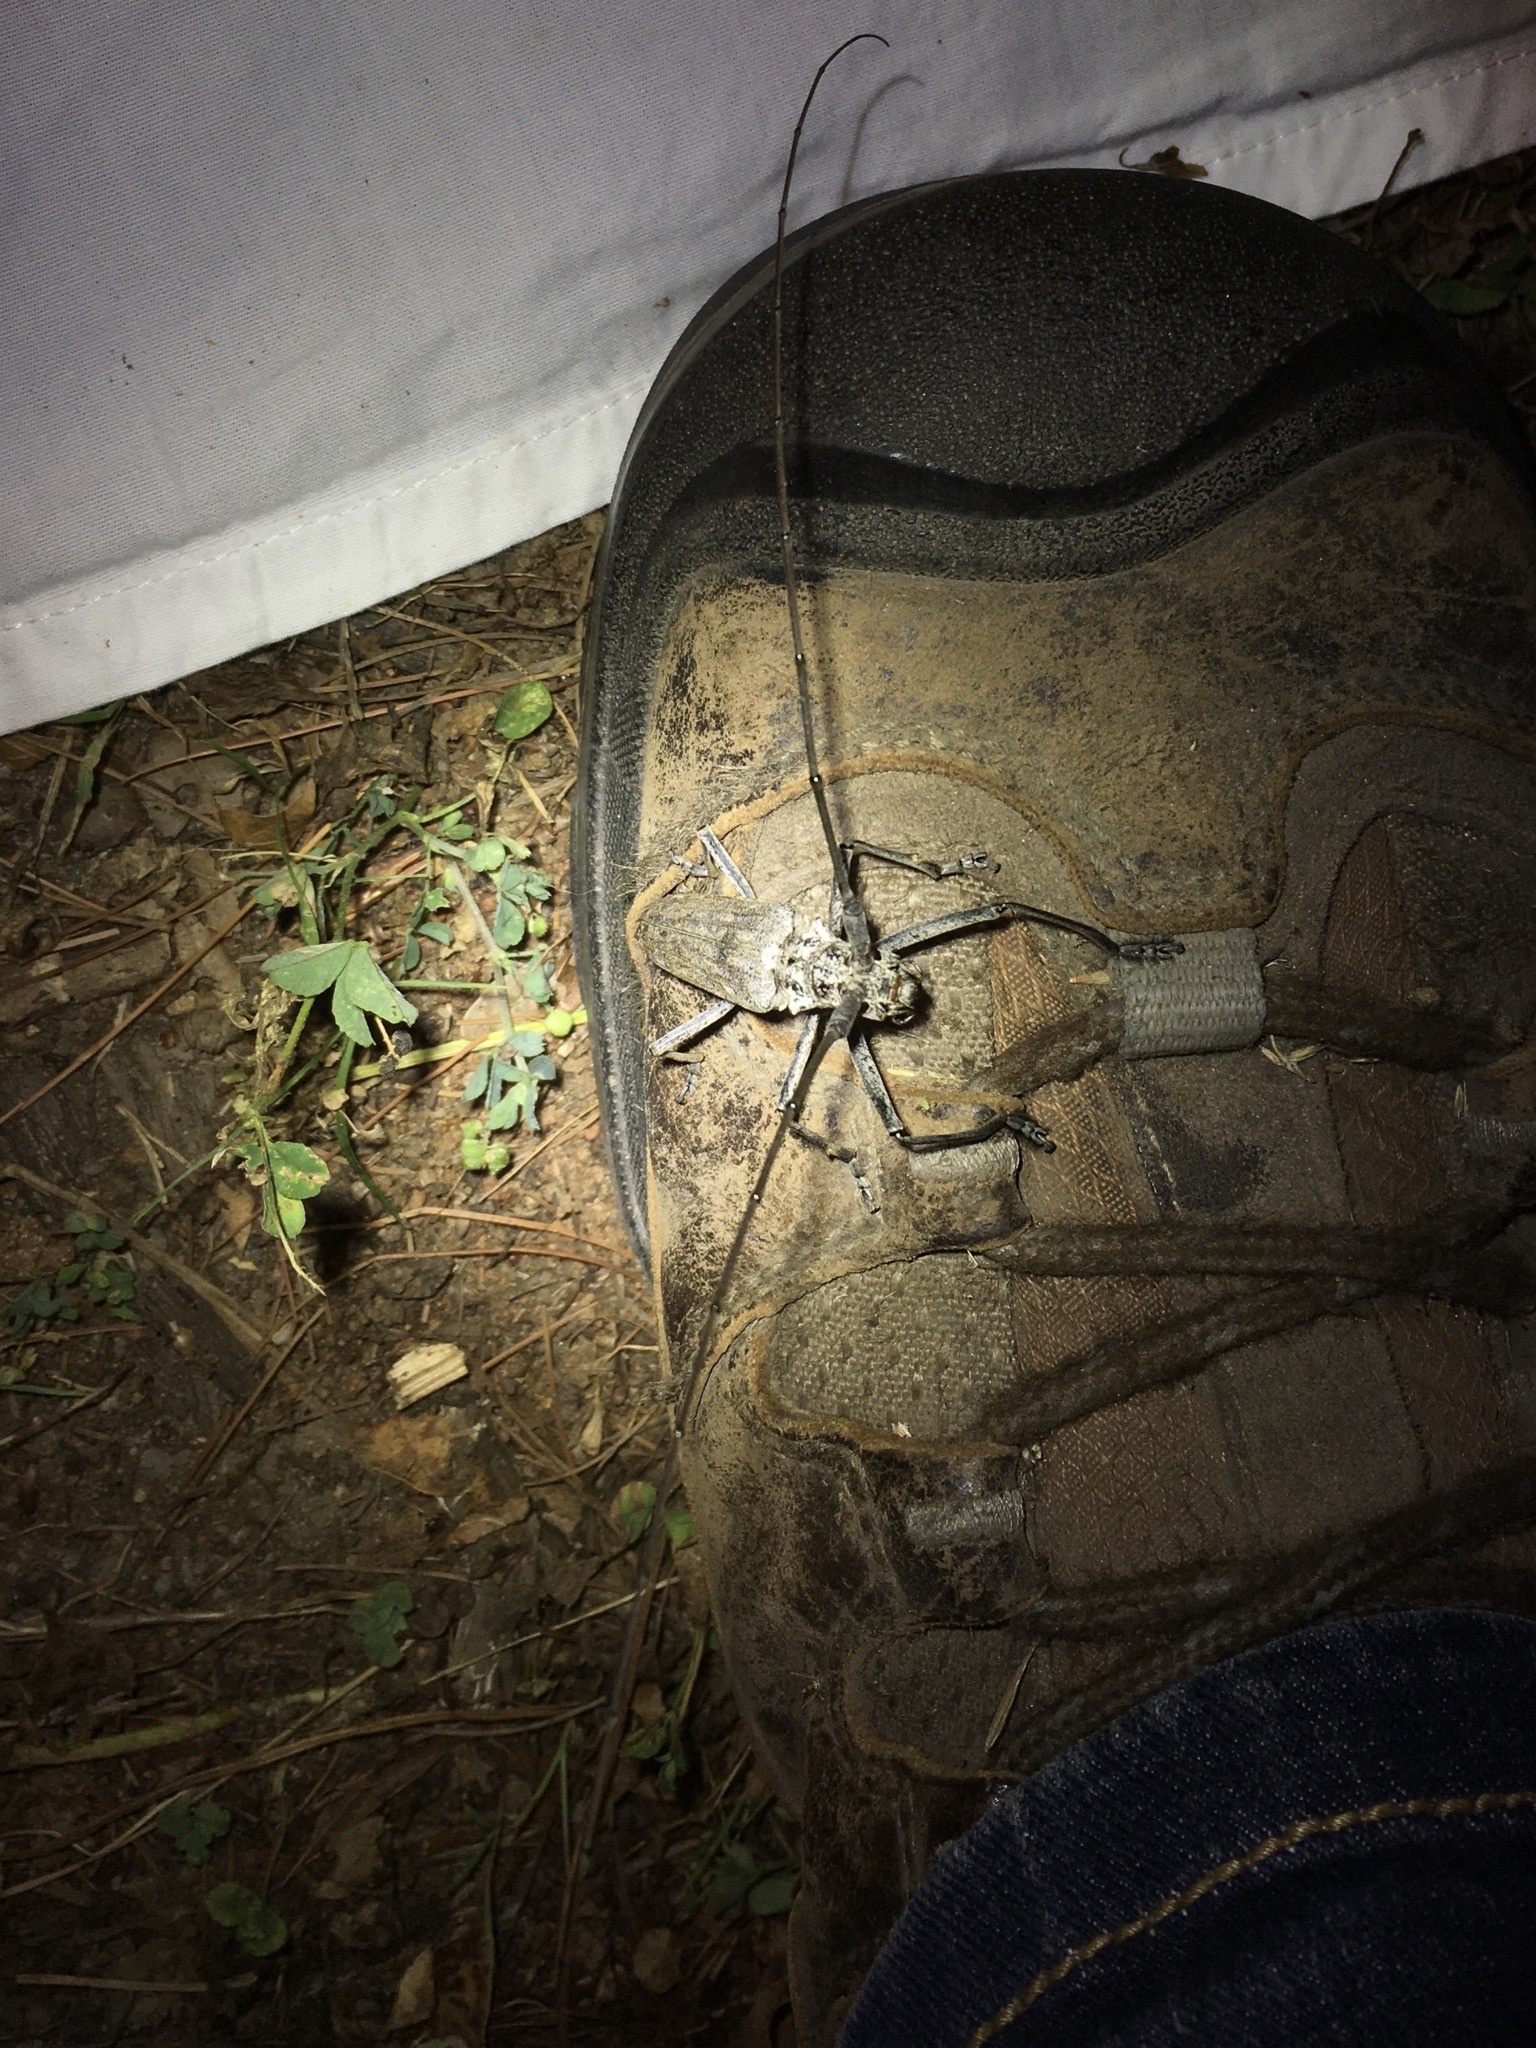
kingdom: Animalia
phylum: Arthropoda
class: Insecta
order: Coleoptera
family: Cerambycidae
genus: Monochamus
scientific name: Monochamus notatus
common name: Northeastern pine sawyer beetle
